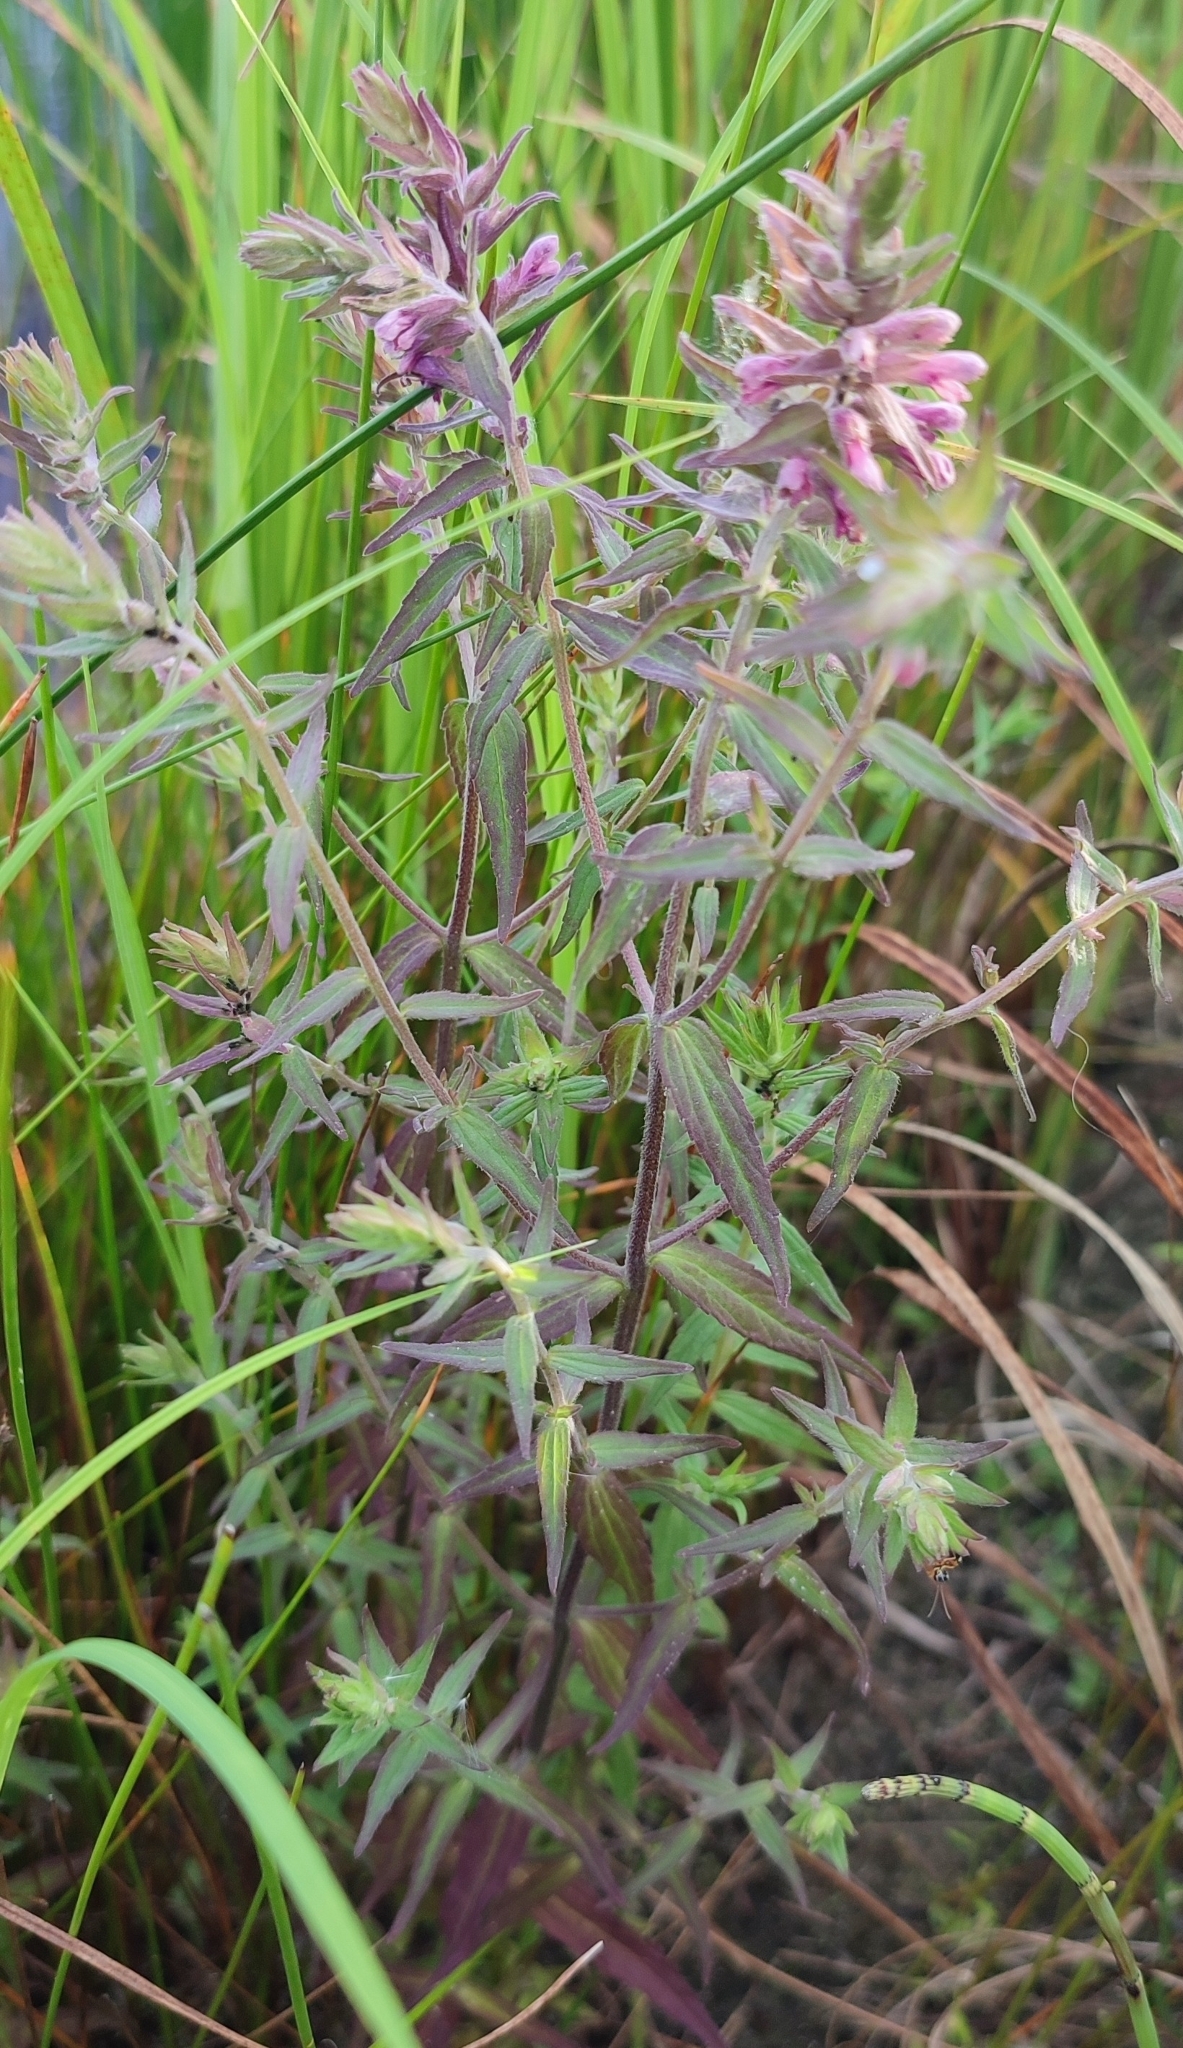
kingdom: Plantae
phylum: Tracheophyta
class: Magnoliopsida
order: Lamiales
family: Orobanchaceae
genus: Odontites
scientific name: Odontites vulgaris
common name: Broomrape
